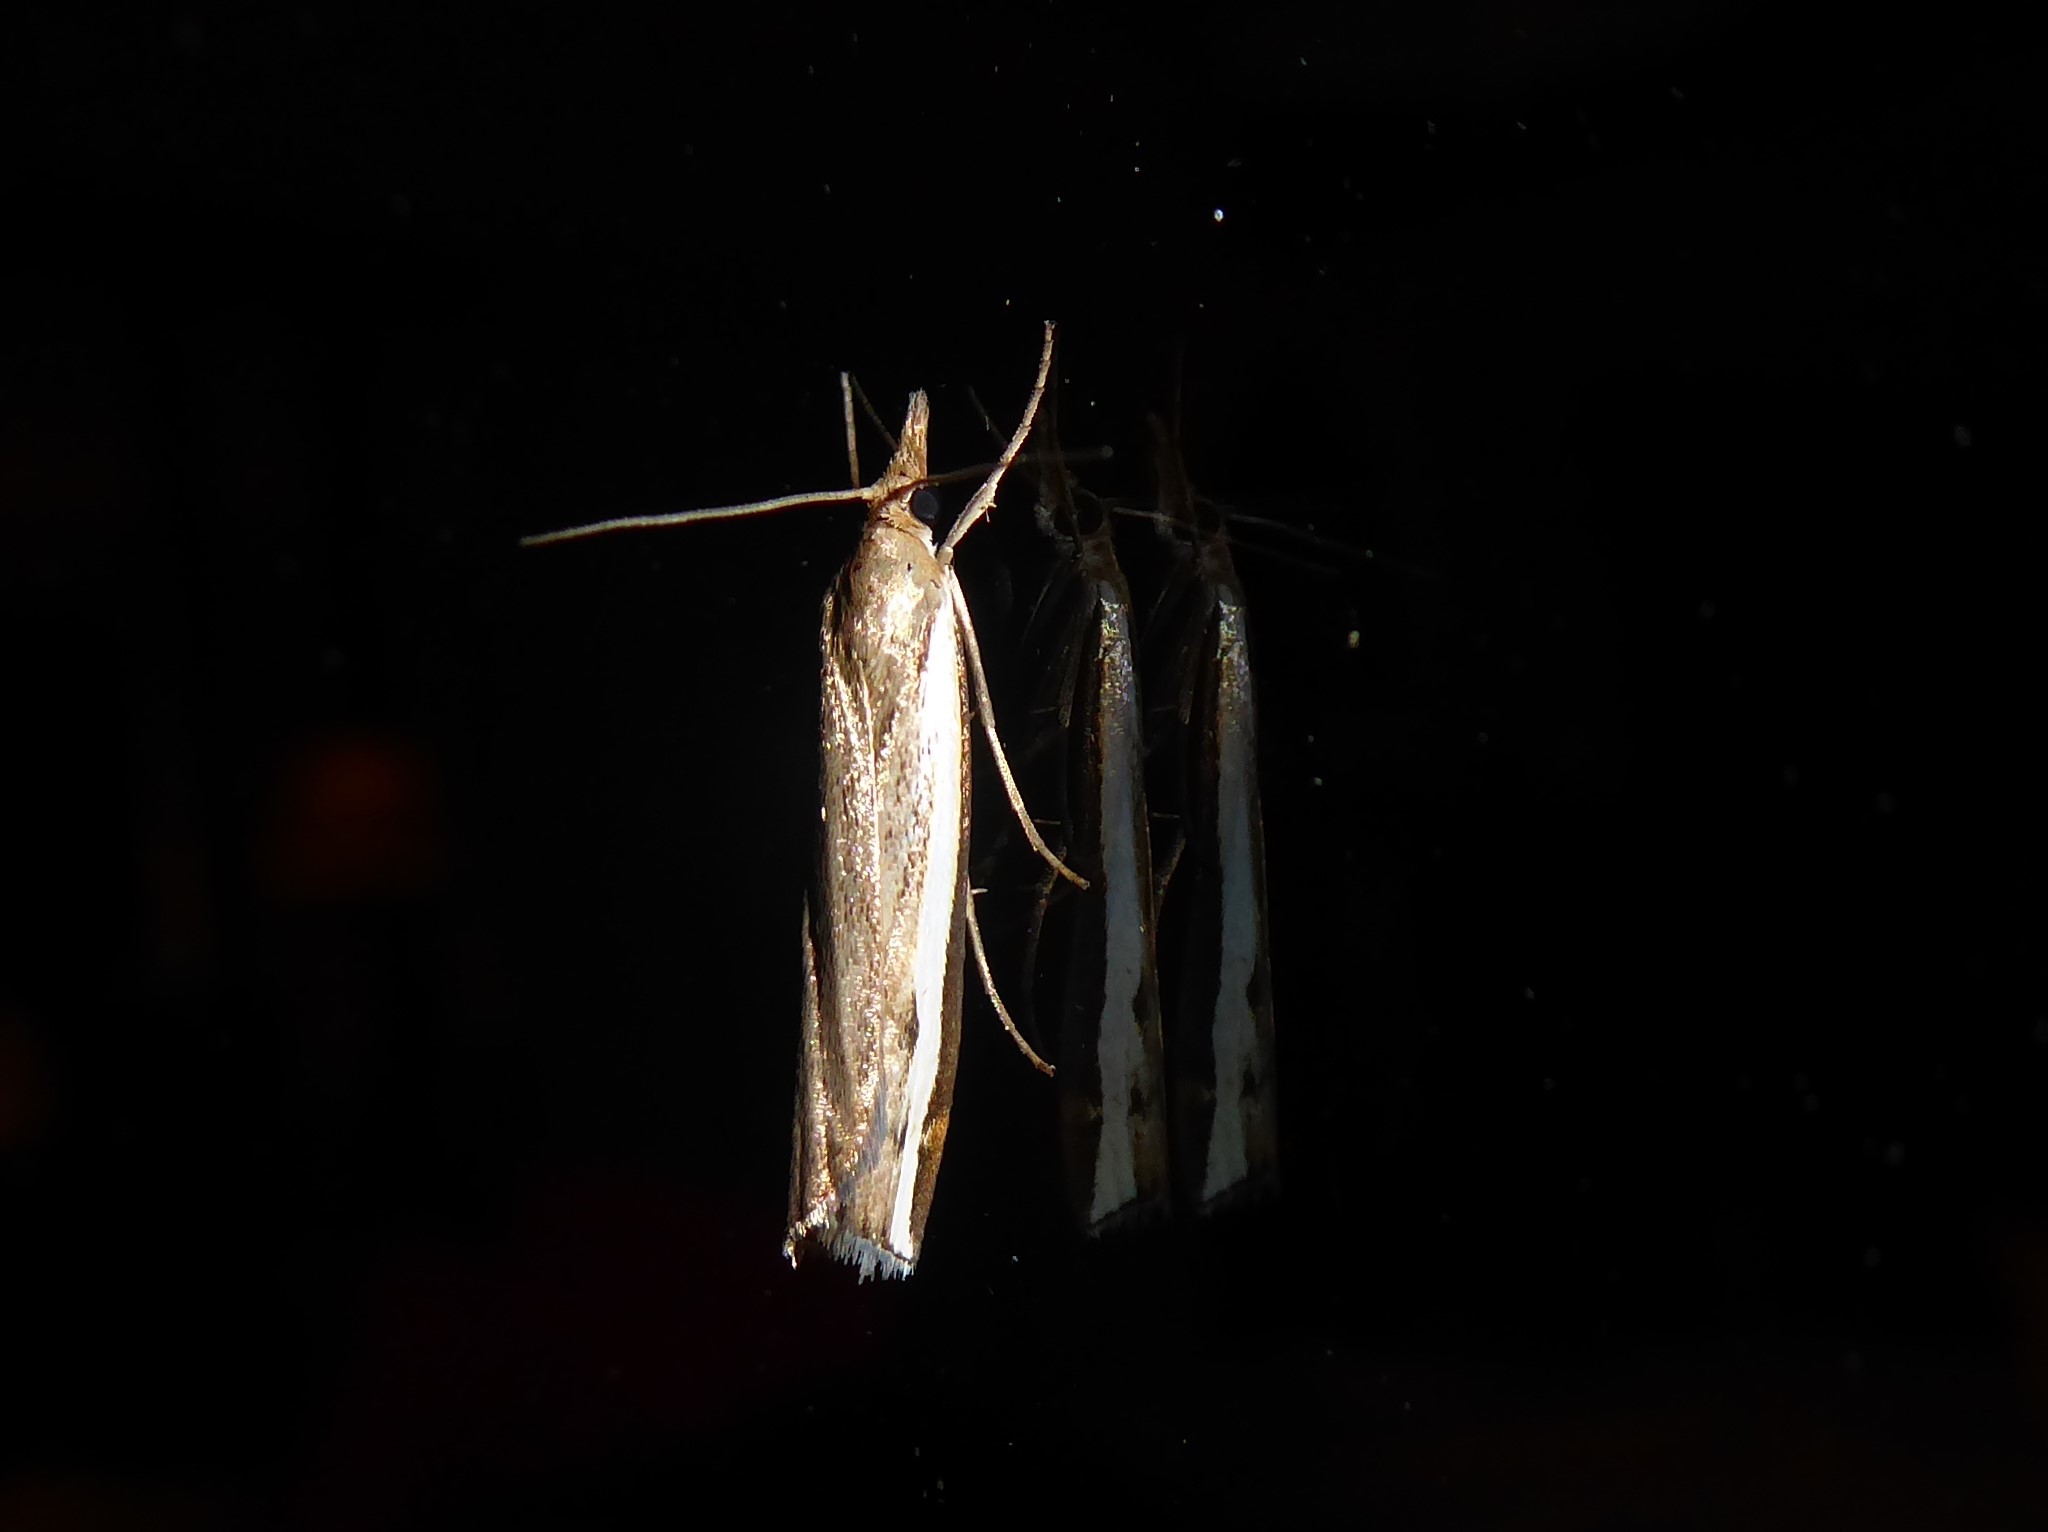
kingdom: Animalia
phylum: Arthropoda
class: Insecta
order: Lepidoptera
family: Crambidae
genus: Orocrambus
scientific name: Orocrambus flexuosellus
